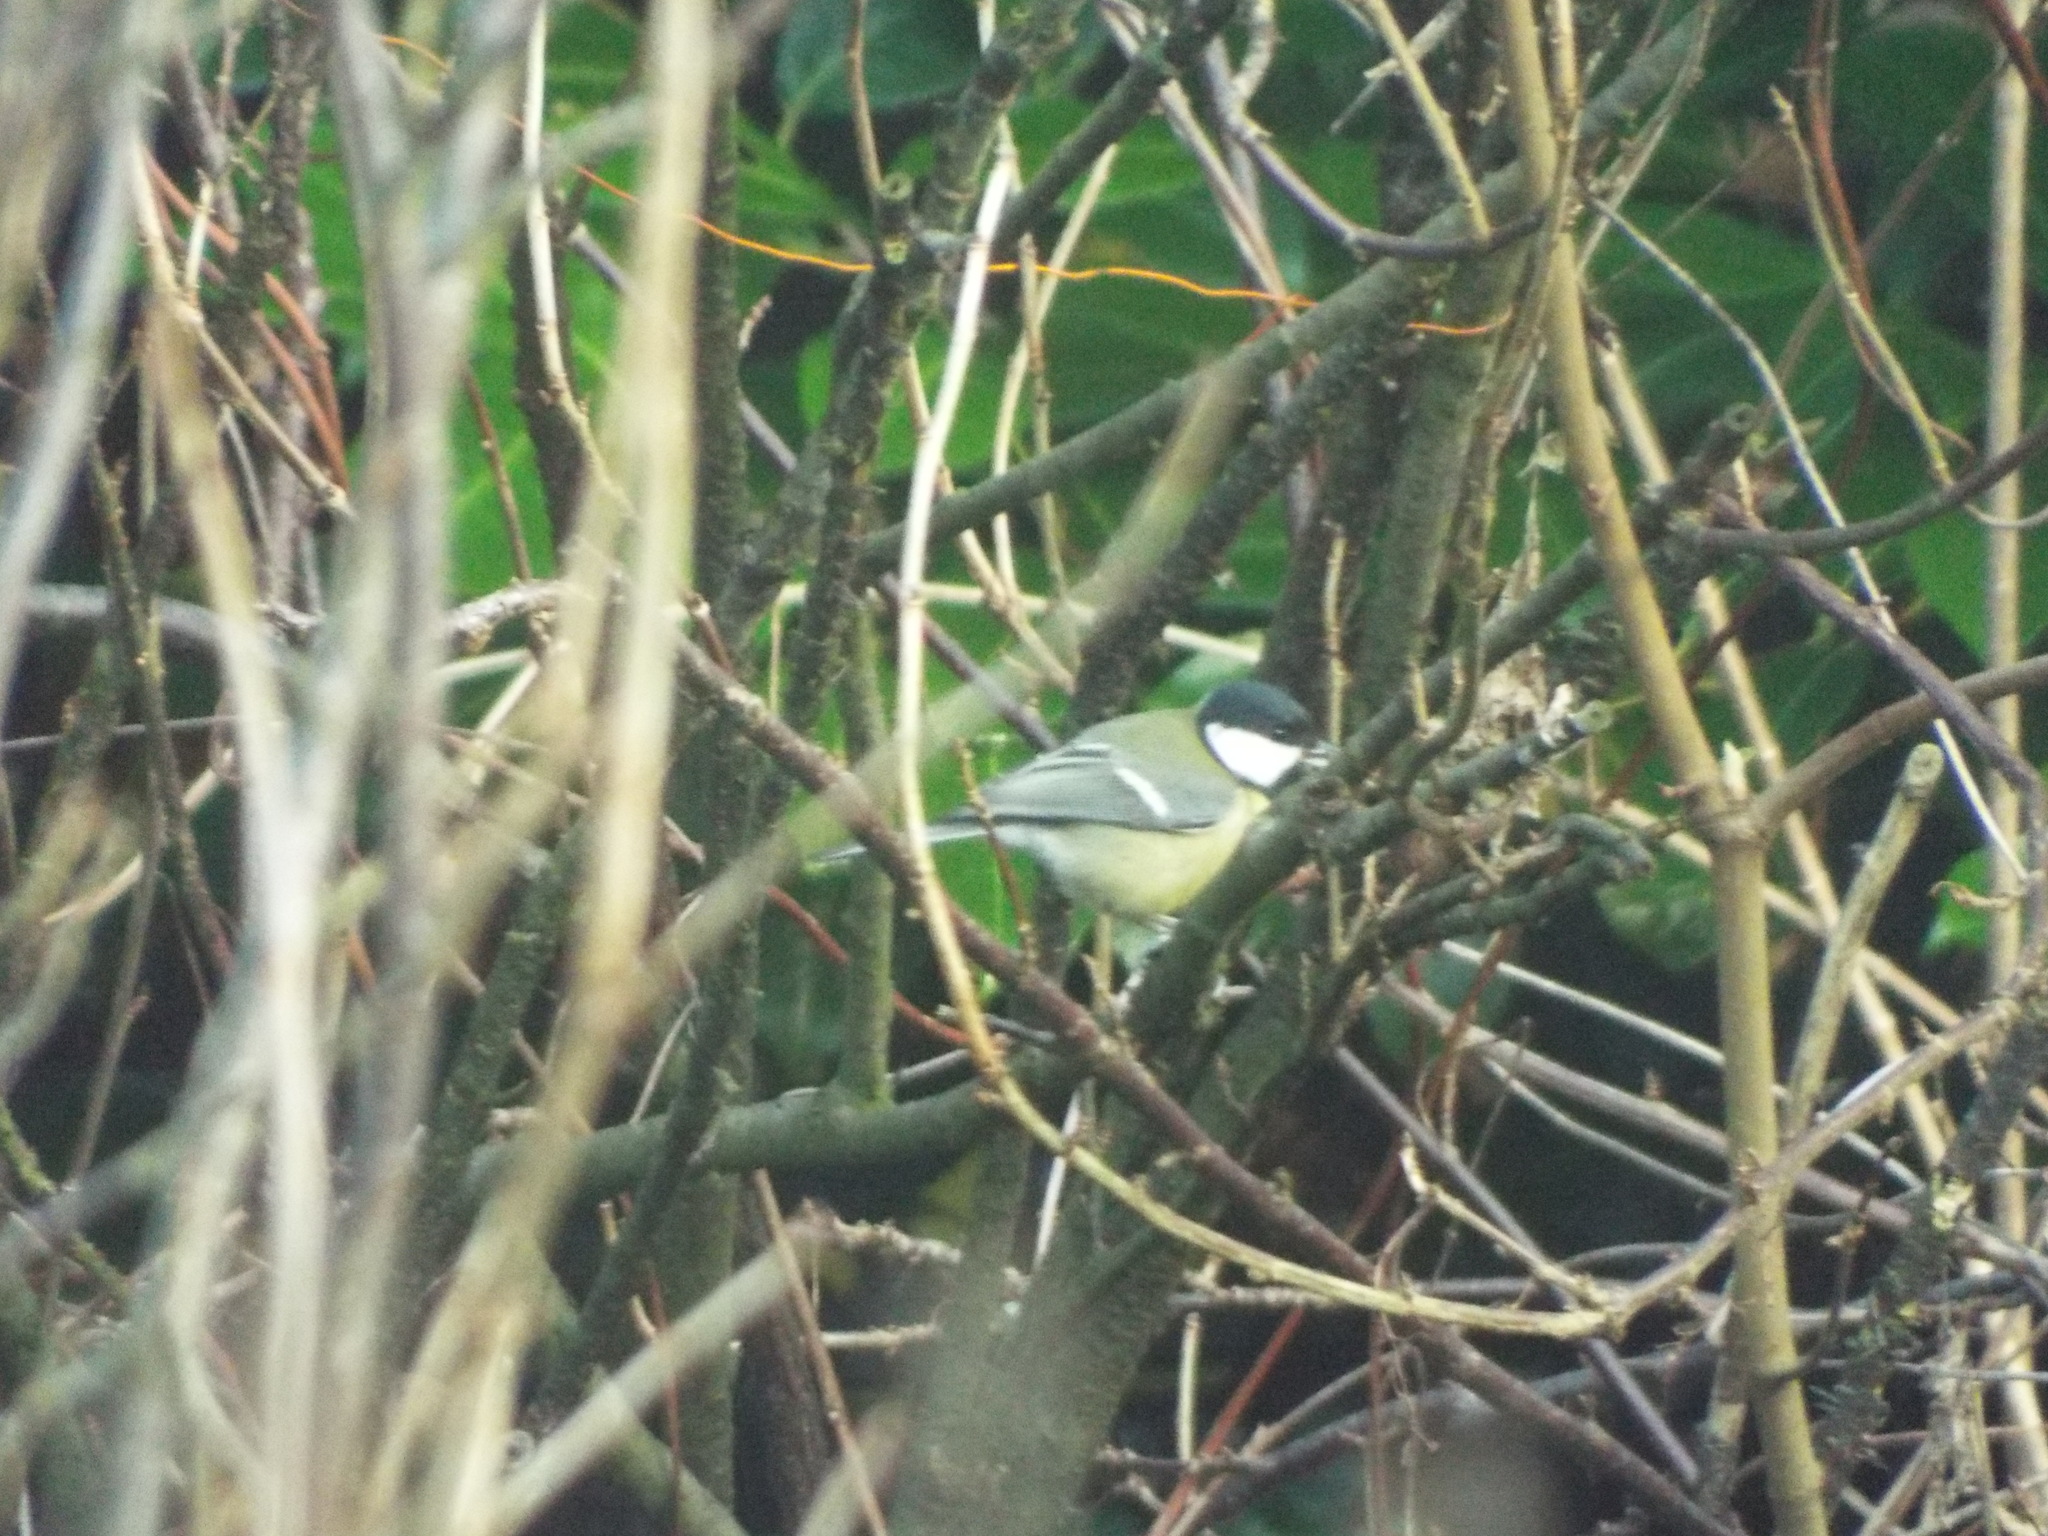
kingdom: Animalia
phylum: Chordata
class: Aves
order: Passeriformes
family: Paridae
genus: Parus
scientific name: Parus major
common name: Great tit
